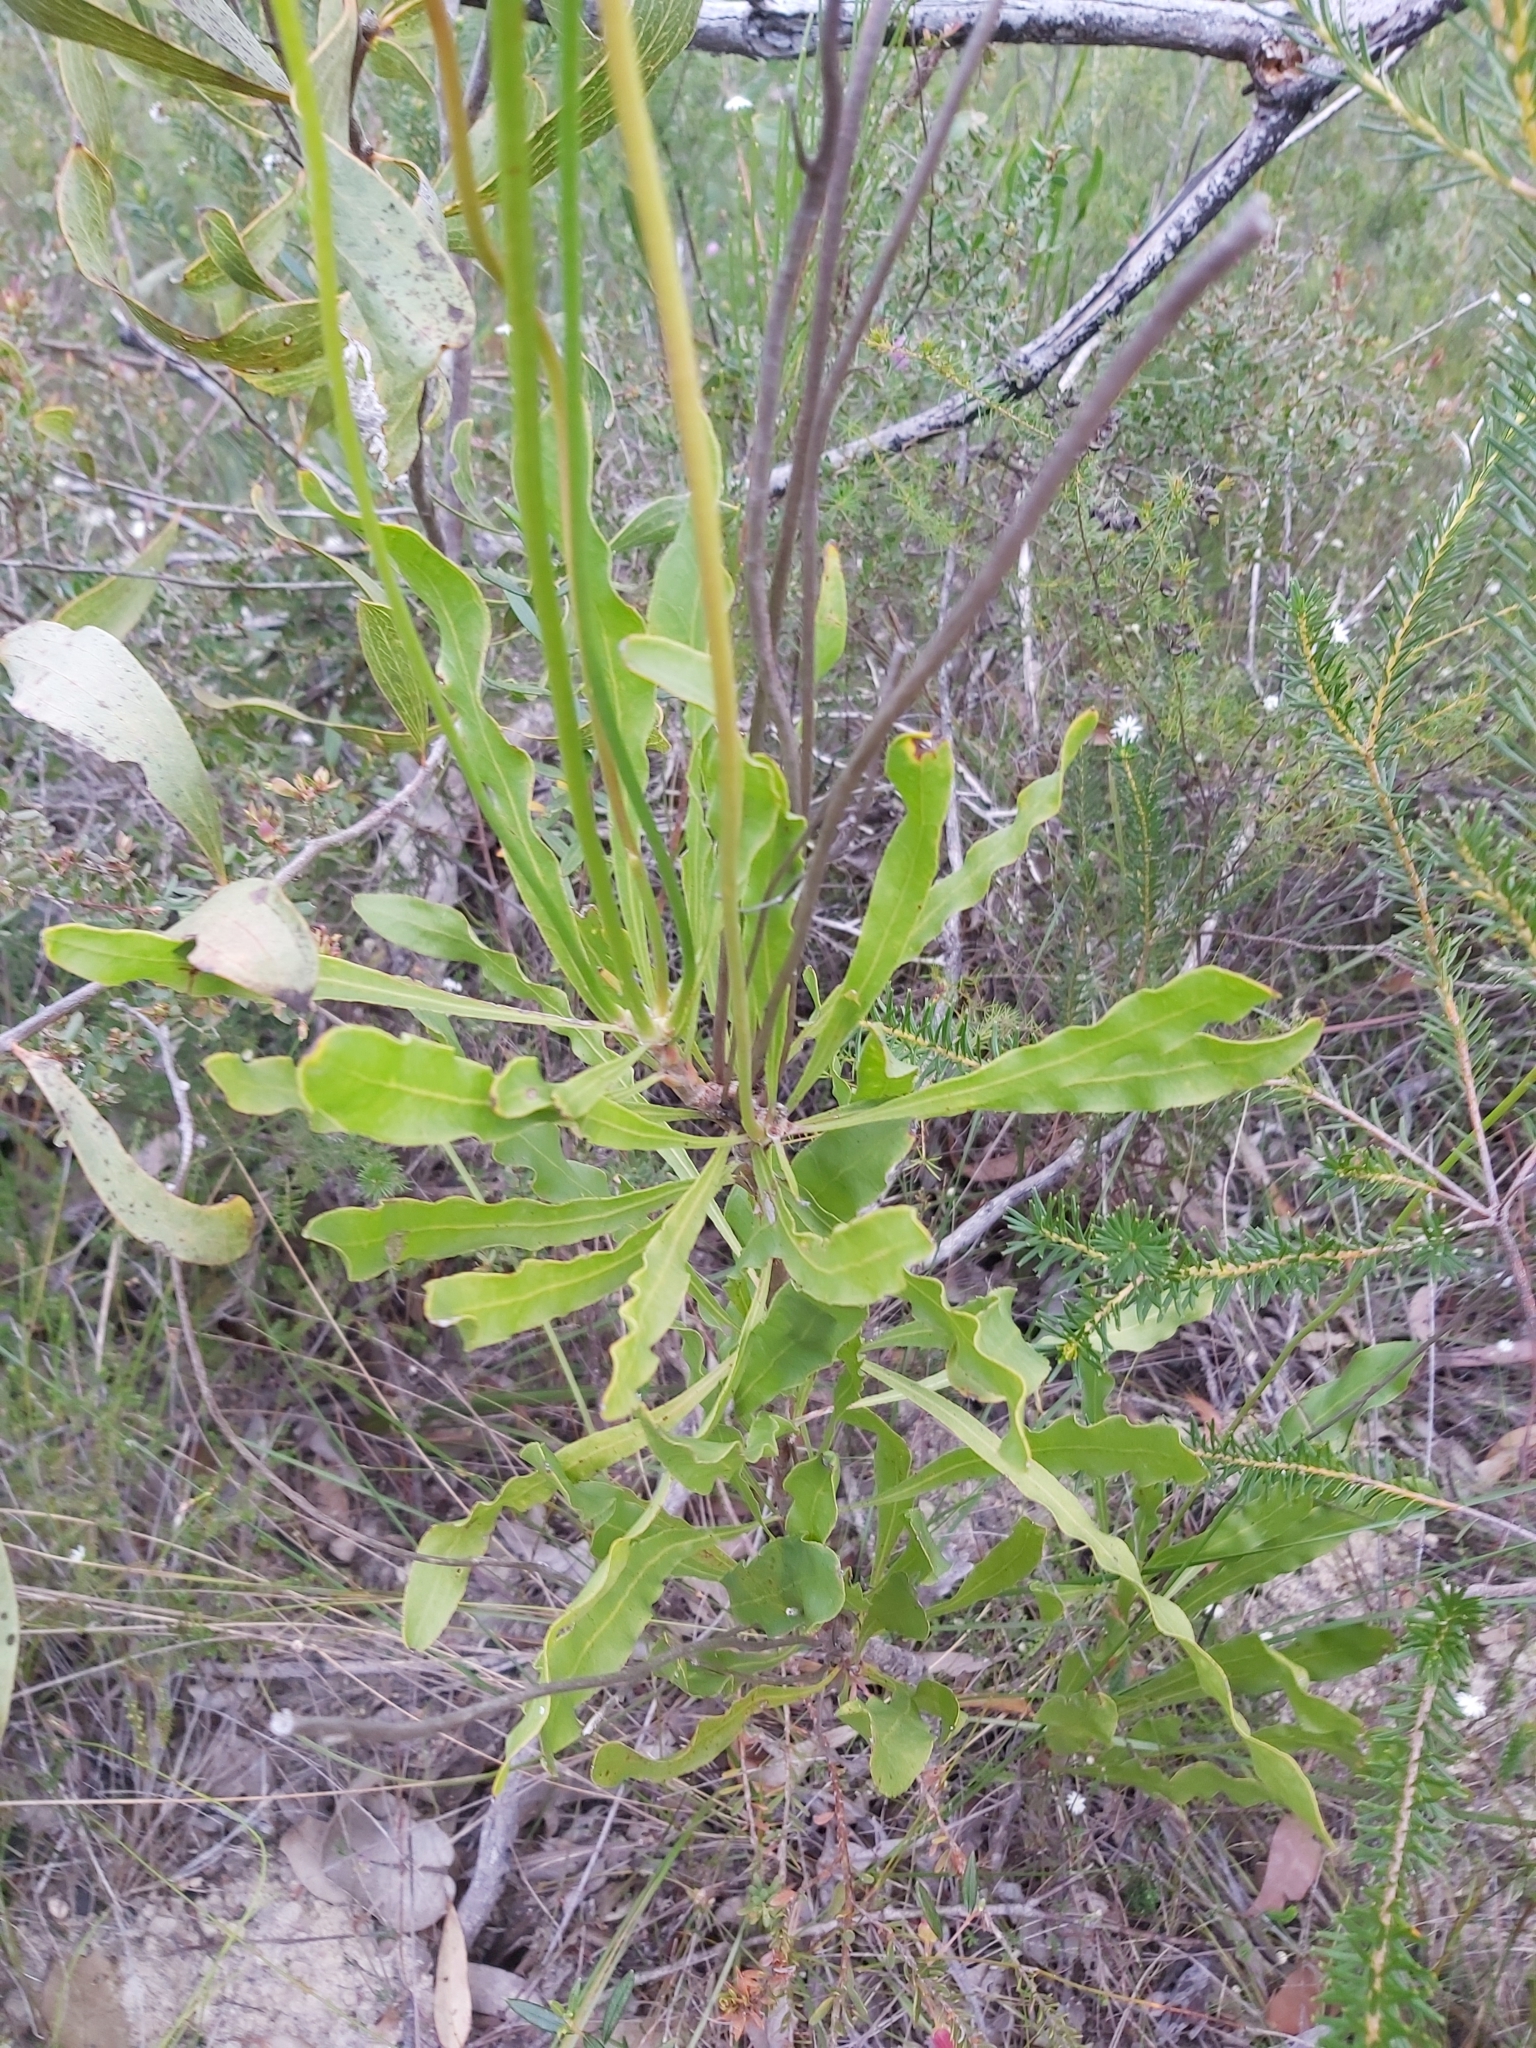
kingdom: Plantae
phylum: Tracheophyta
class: Magnoliopsida
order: Proteales
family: Proteaceae
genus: Conospermum
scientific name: Conospermum longifolium
